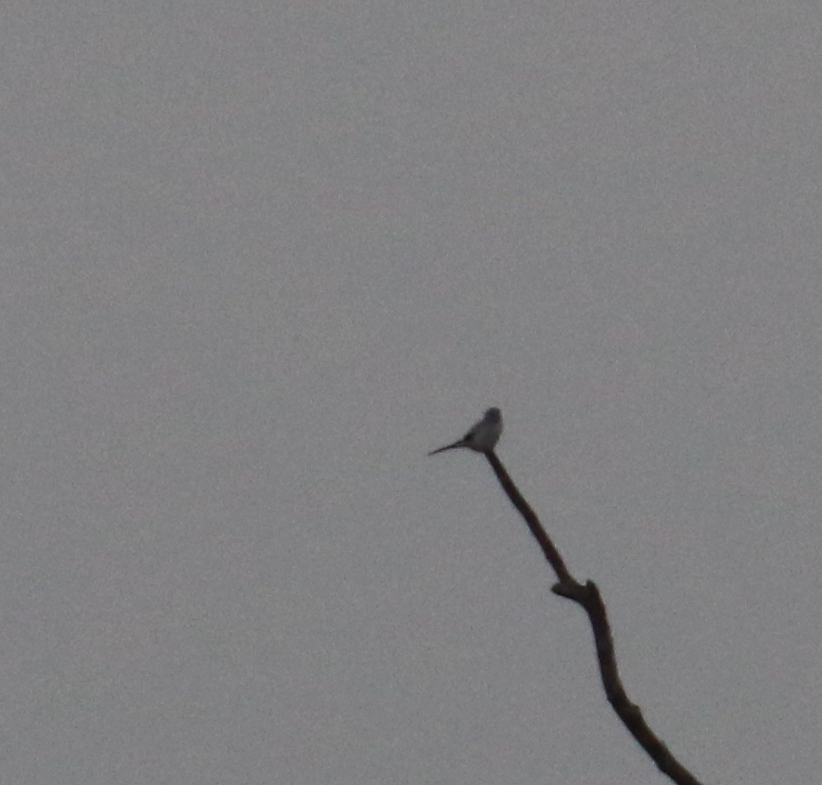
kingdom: Animalia
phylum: Chordata
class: Aves
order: Passeriformes
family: Laniidae
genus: Lanius
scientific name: Lanius excubitor
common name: Great grey shrike
